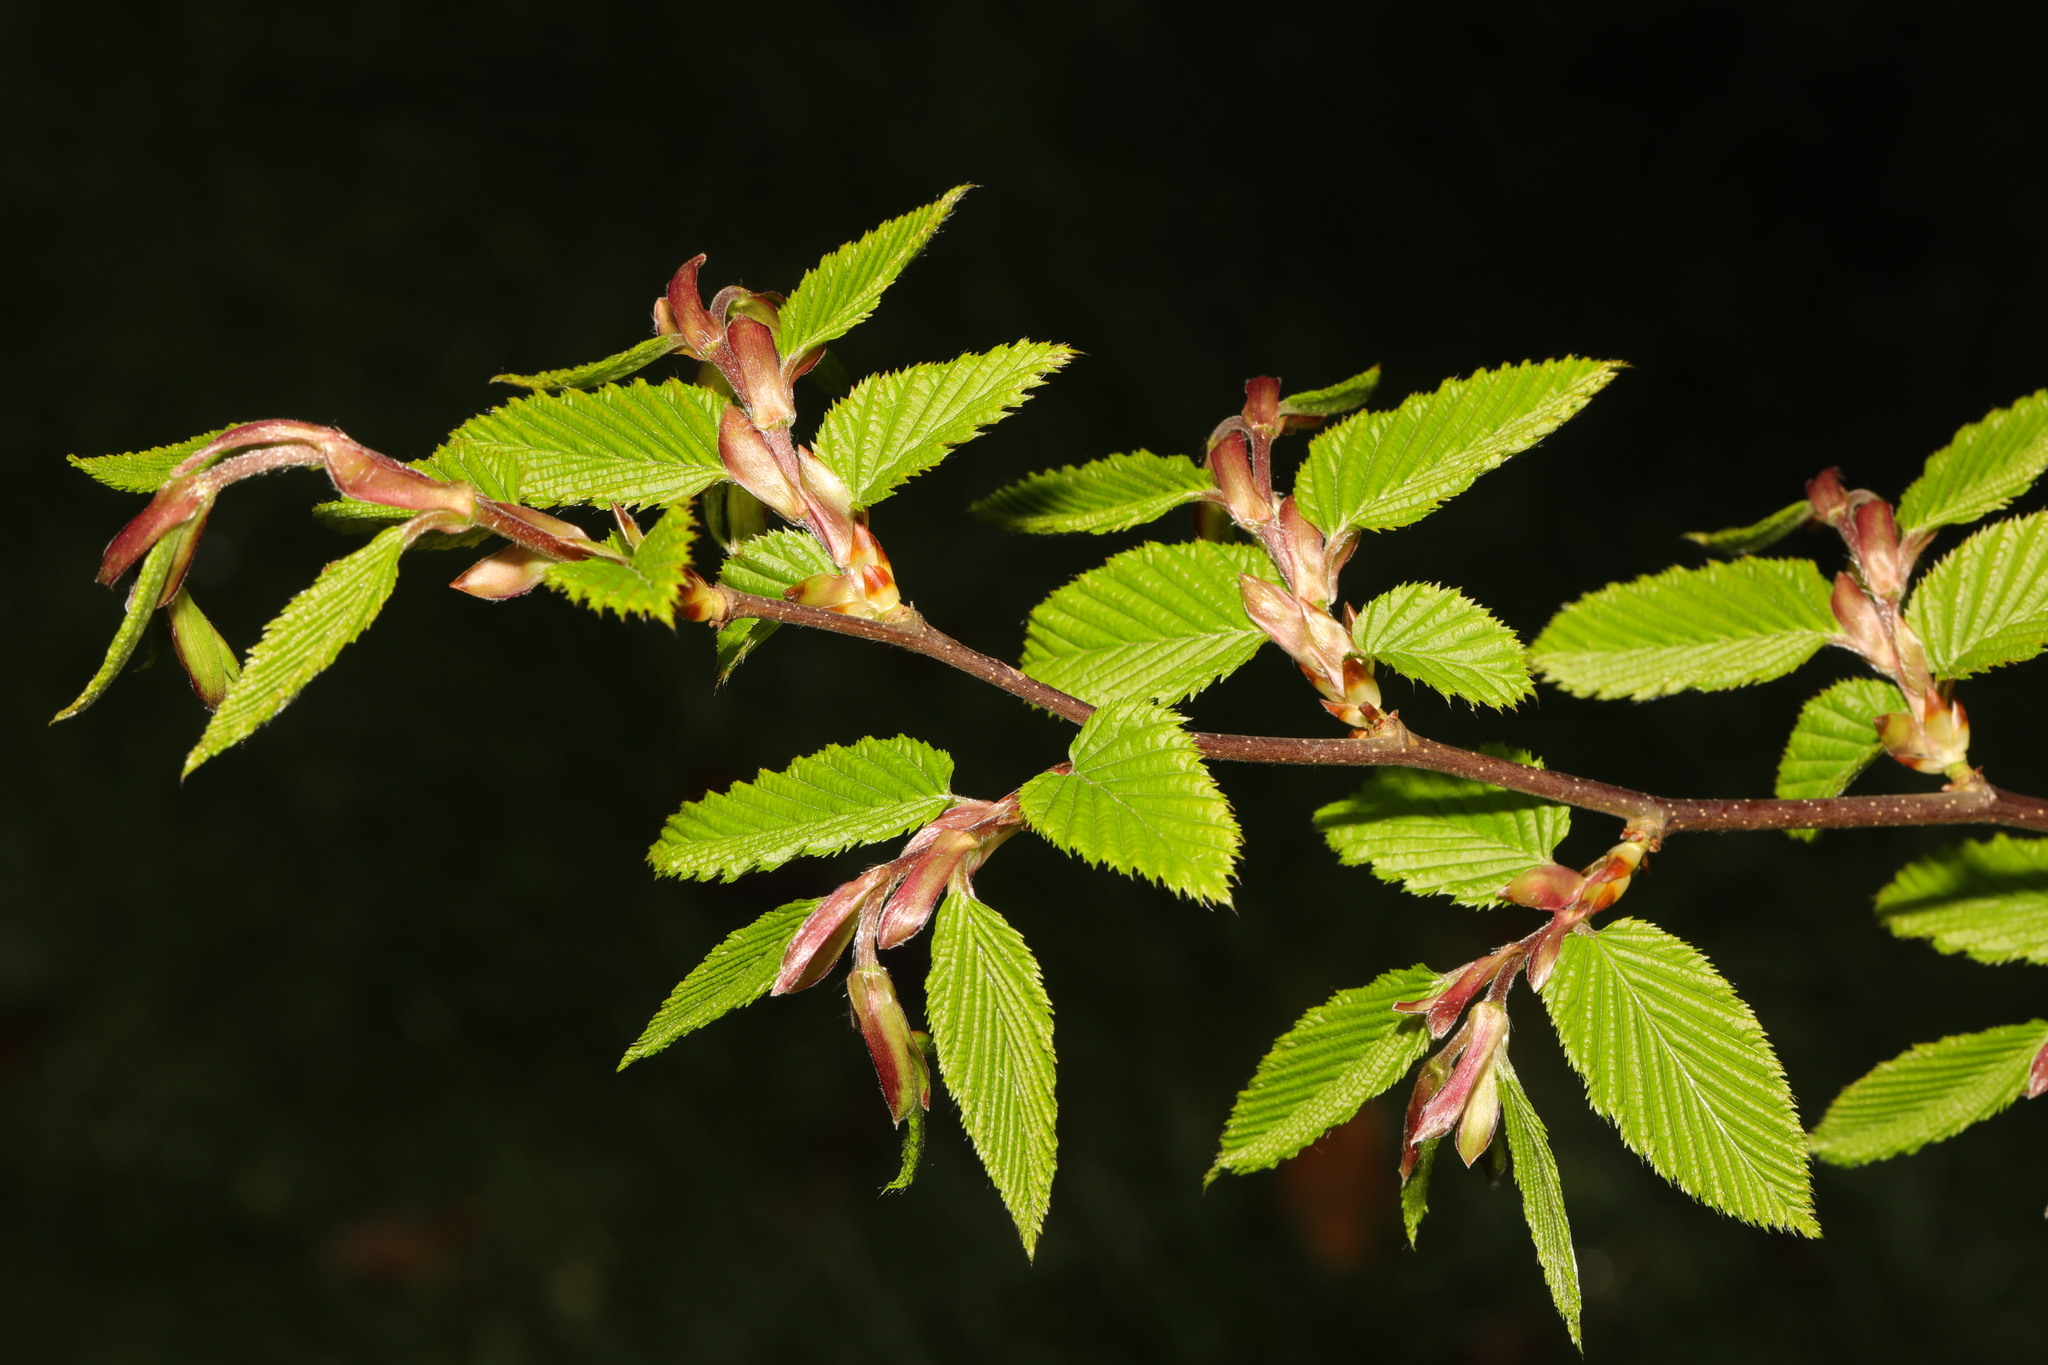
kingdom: Plantae
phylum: Tracheophyta
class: Magnoliopsida
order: Fagales
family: Betulaceae
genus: Carpinus
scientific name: Carpinus betulus
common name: Hornbeam
